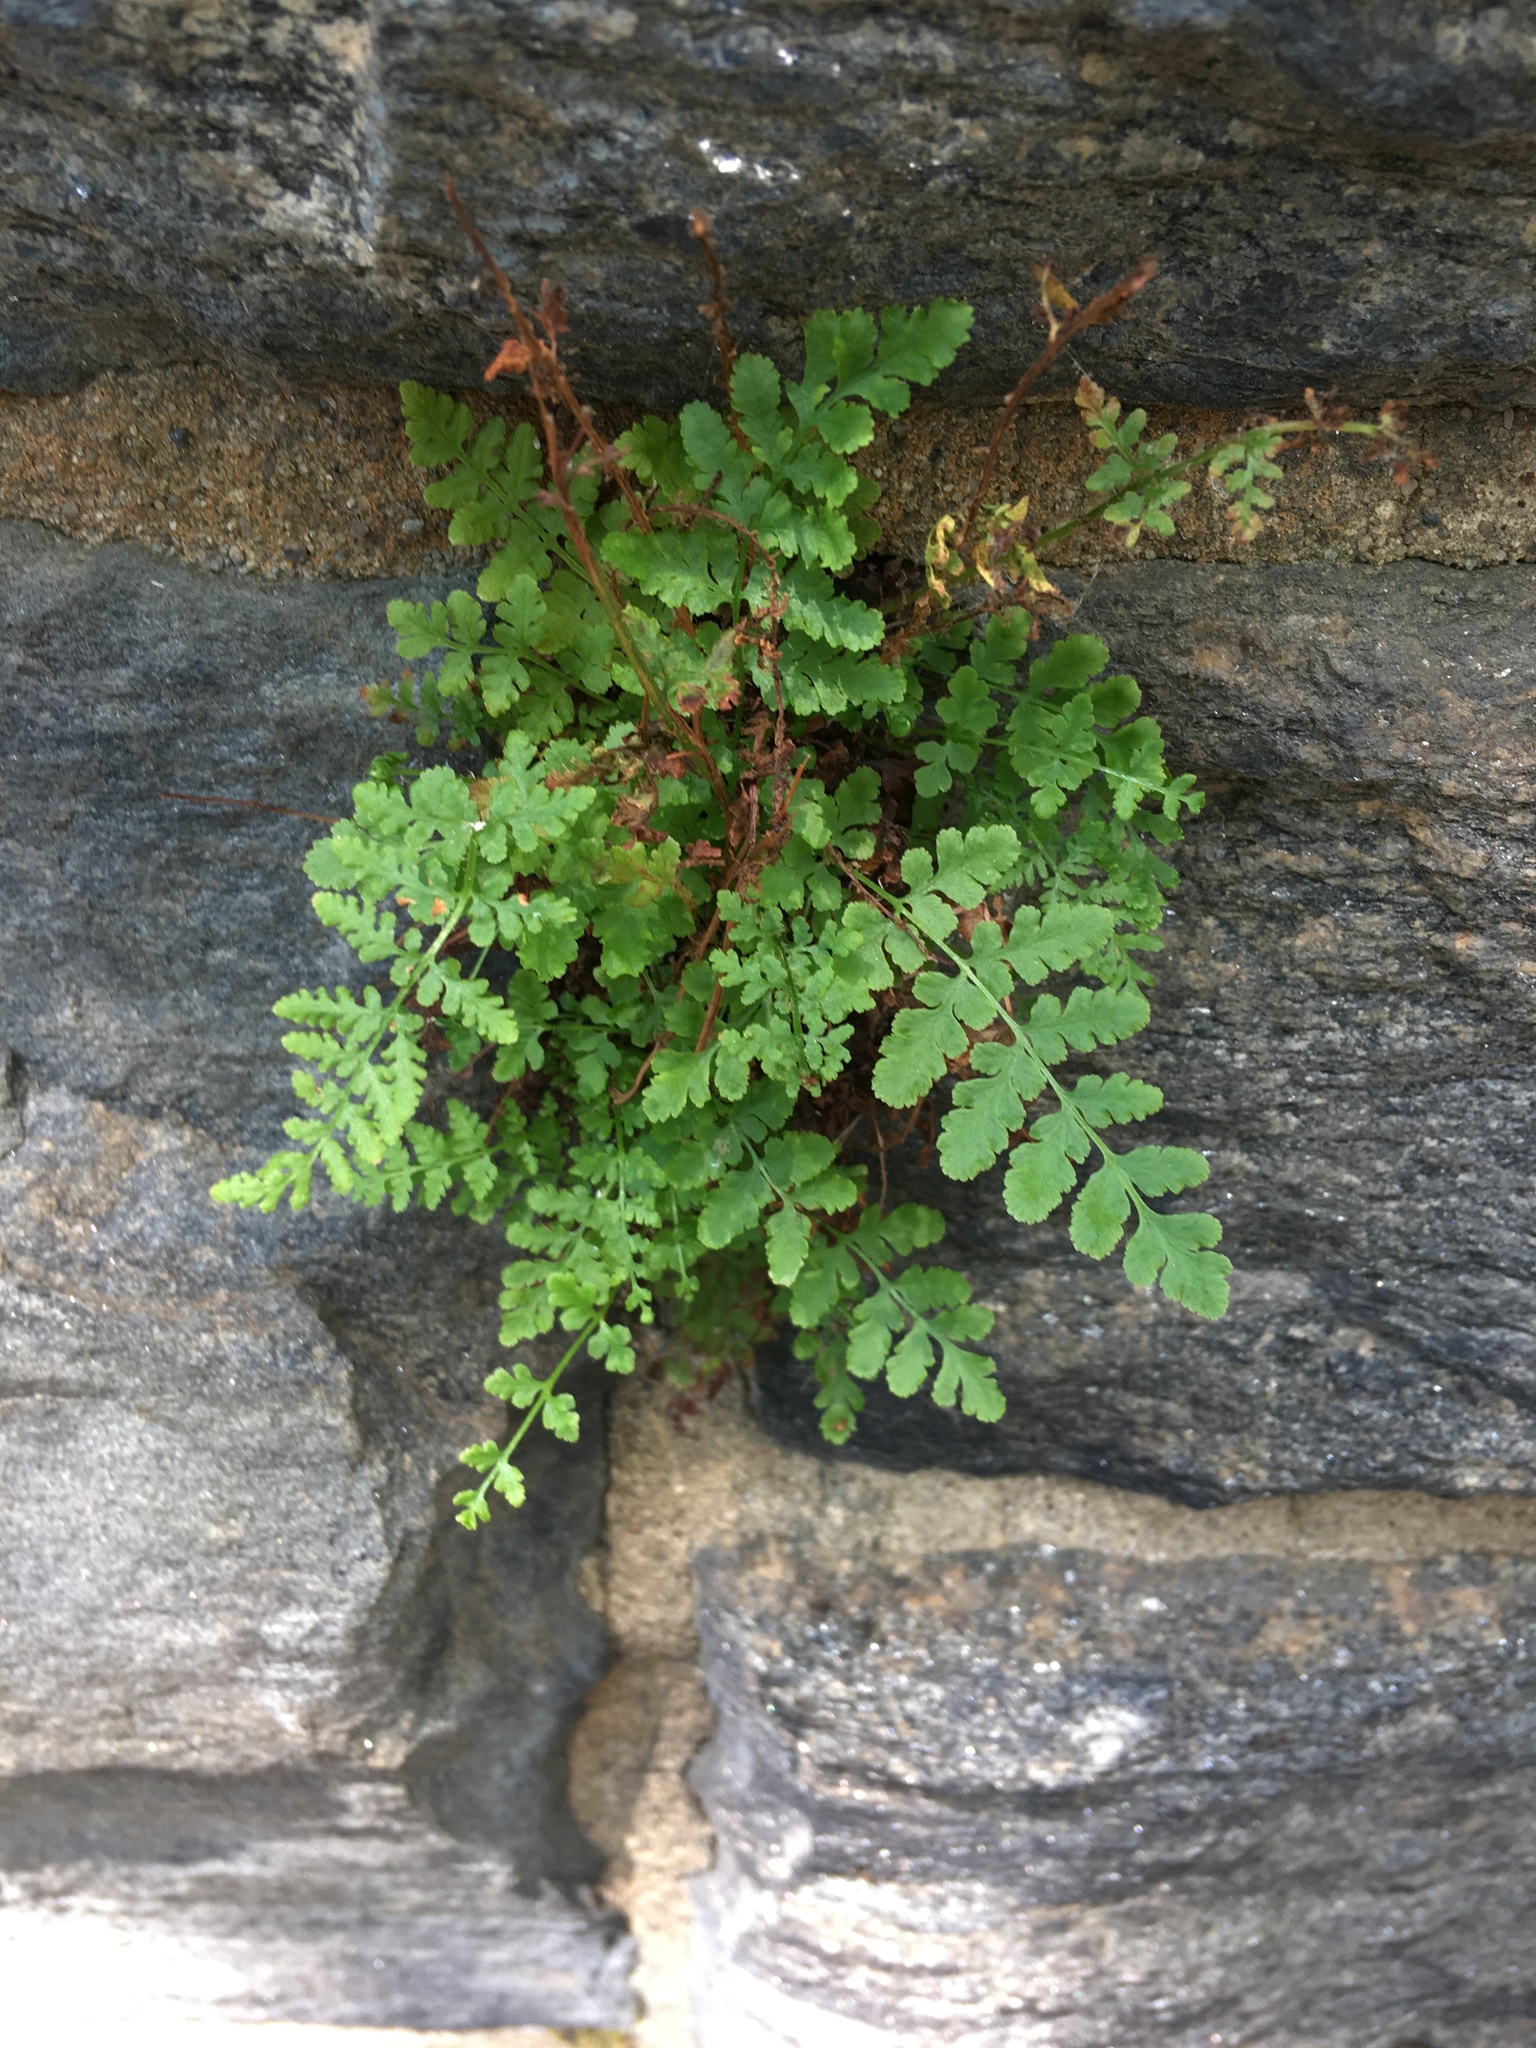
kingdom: Plantae
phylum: Tracheophyta
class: Polypodiopsida
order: Polypodiales
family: Woodsiaceae
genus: Physematium
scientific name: Physematium obtusum
